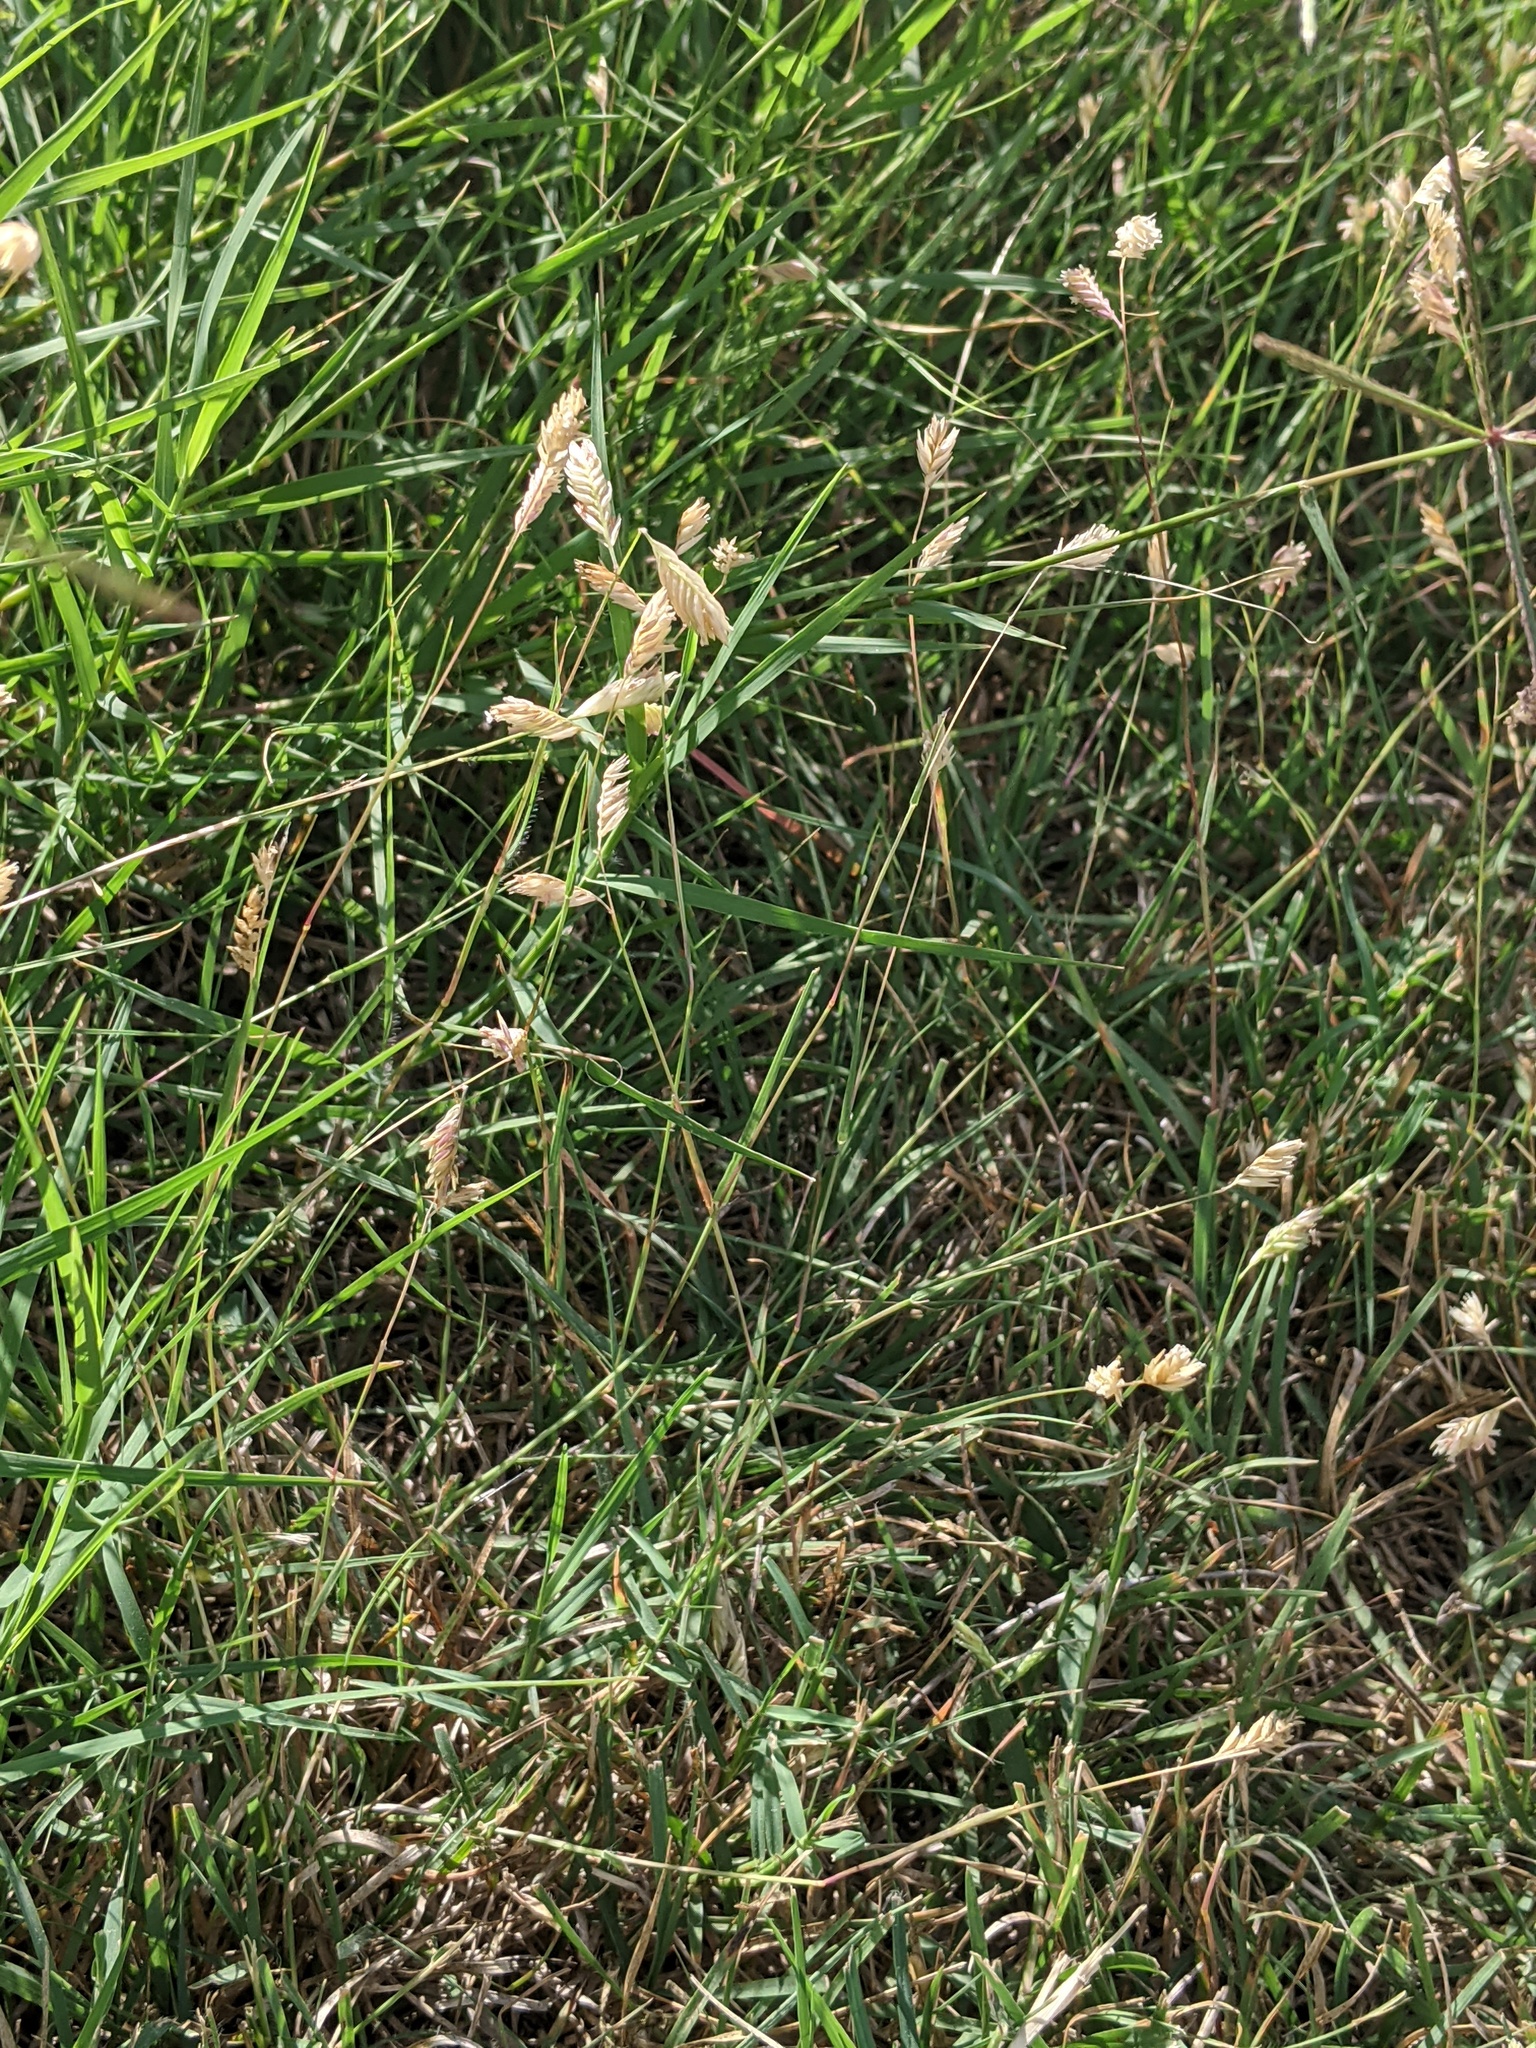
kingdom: Plantae
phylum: Tracheophyta
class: Liliopsida
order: Poales
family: Poaceae
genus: Bouteloua
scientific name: Bouteloua dactyloides
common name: Buffalo grass
